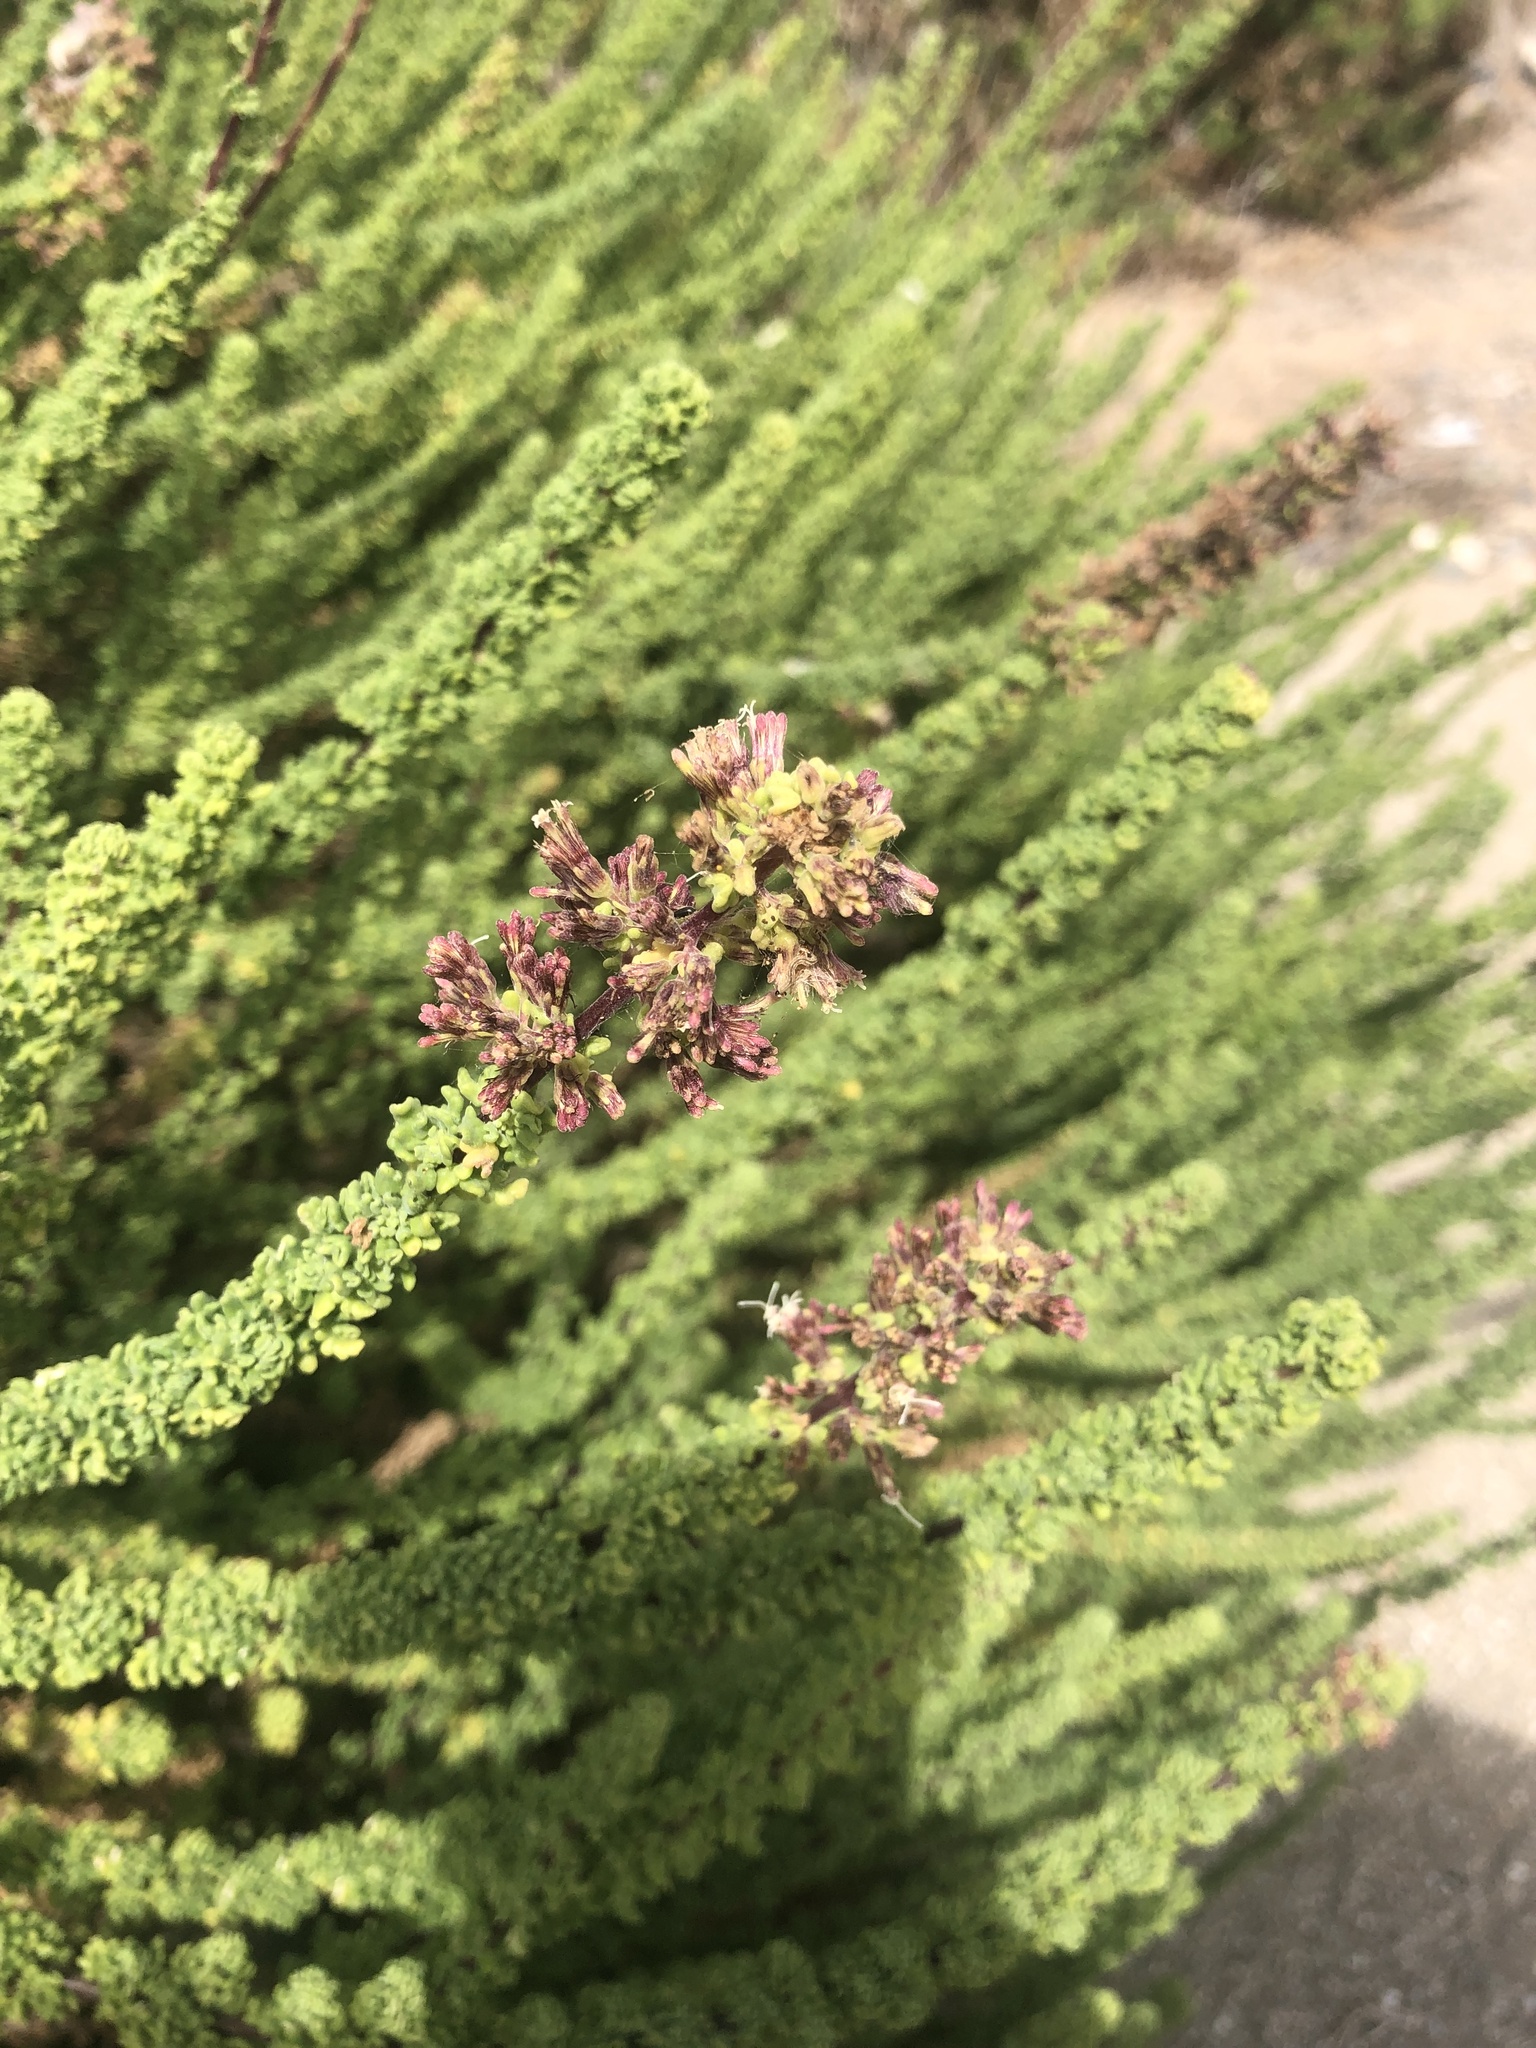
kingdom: Plantae
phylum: Tracheophyta
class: Magnoliopsida
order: Asterales
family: Asteraceae
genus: Ophryosporus
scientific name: Ophryosporus triangularis
